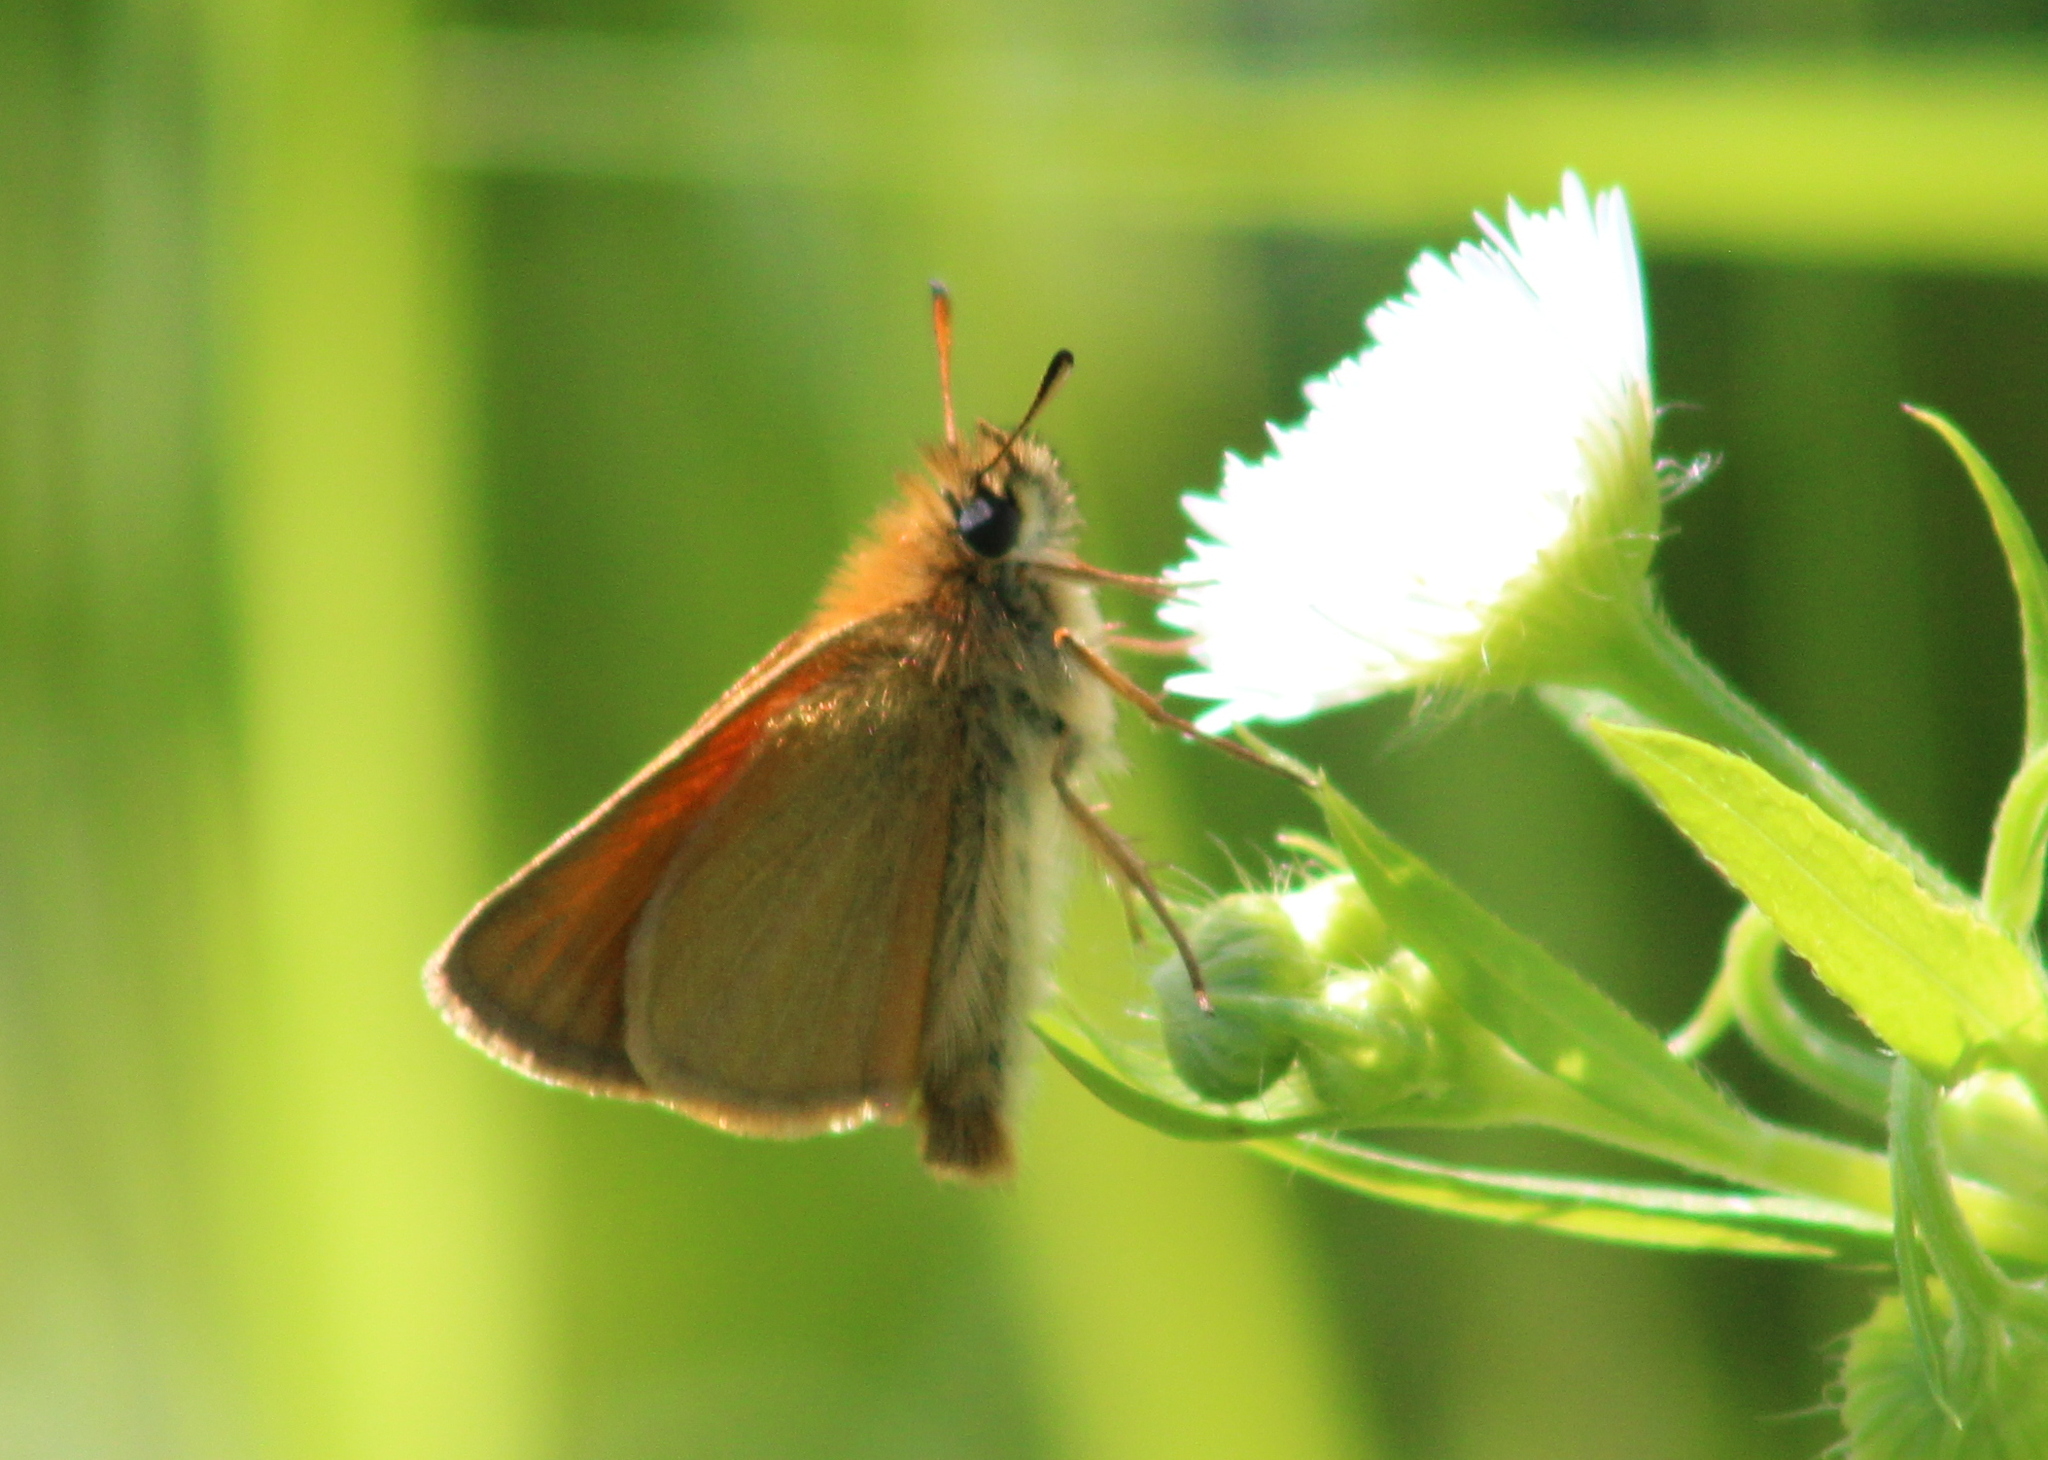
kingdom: Animalia
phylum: Arthropoda
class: Insecta
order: Lepidoptera
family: Hesperiidae
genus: Thymelicus
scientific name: Thymelicus lineola
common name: Essex skipper
